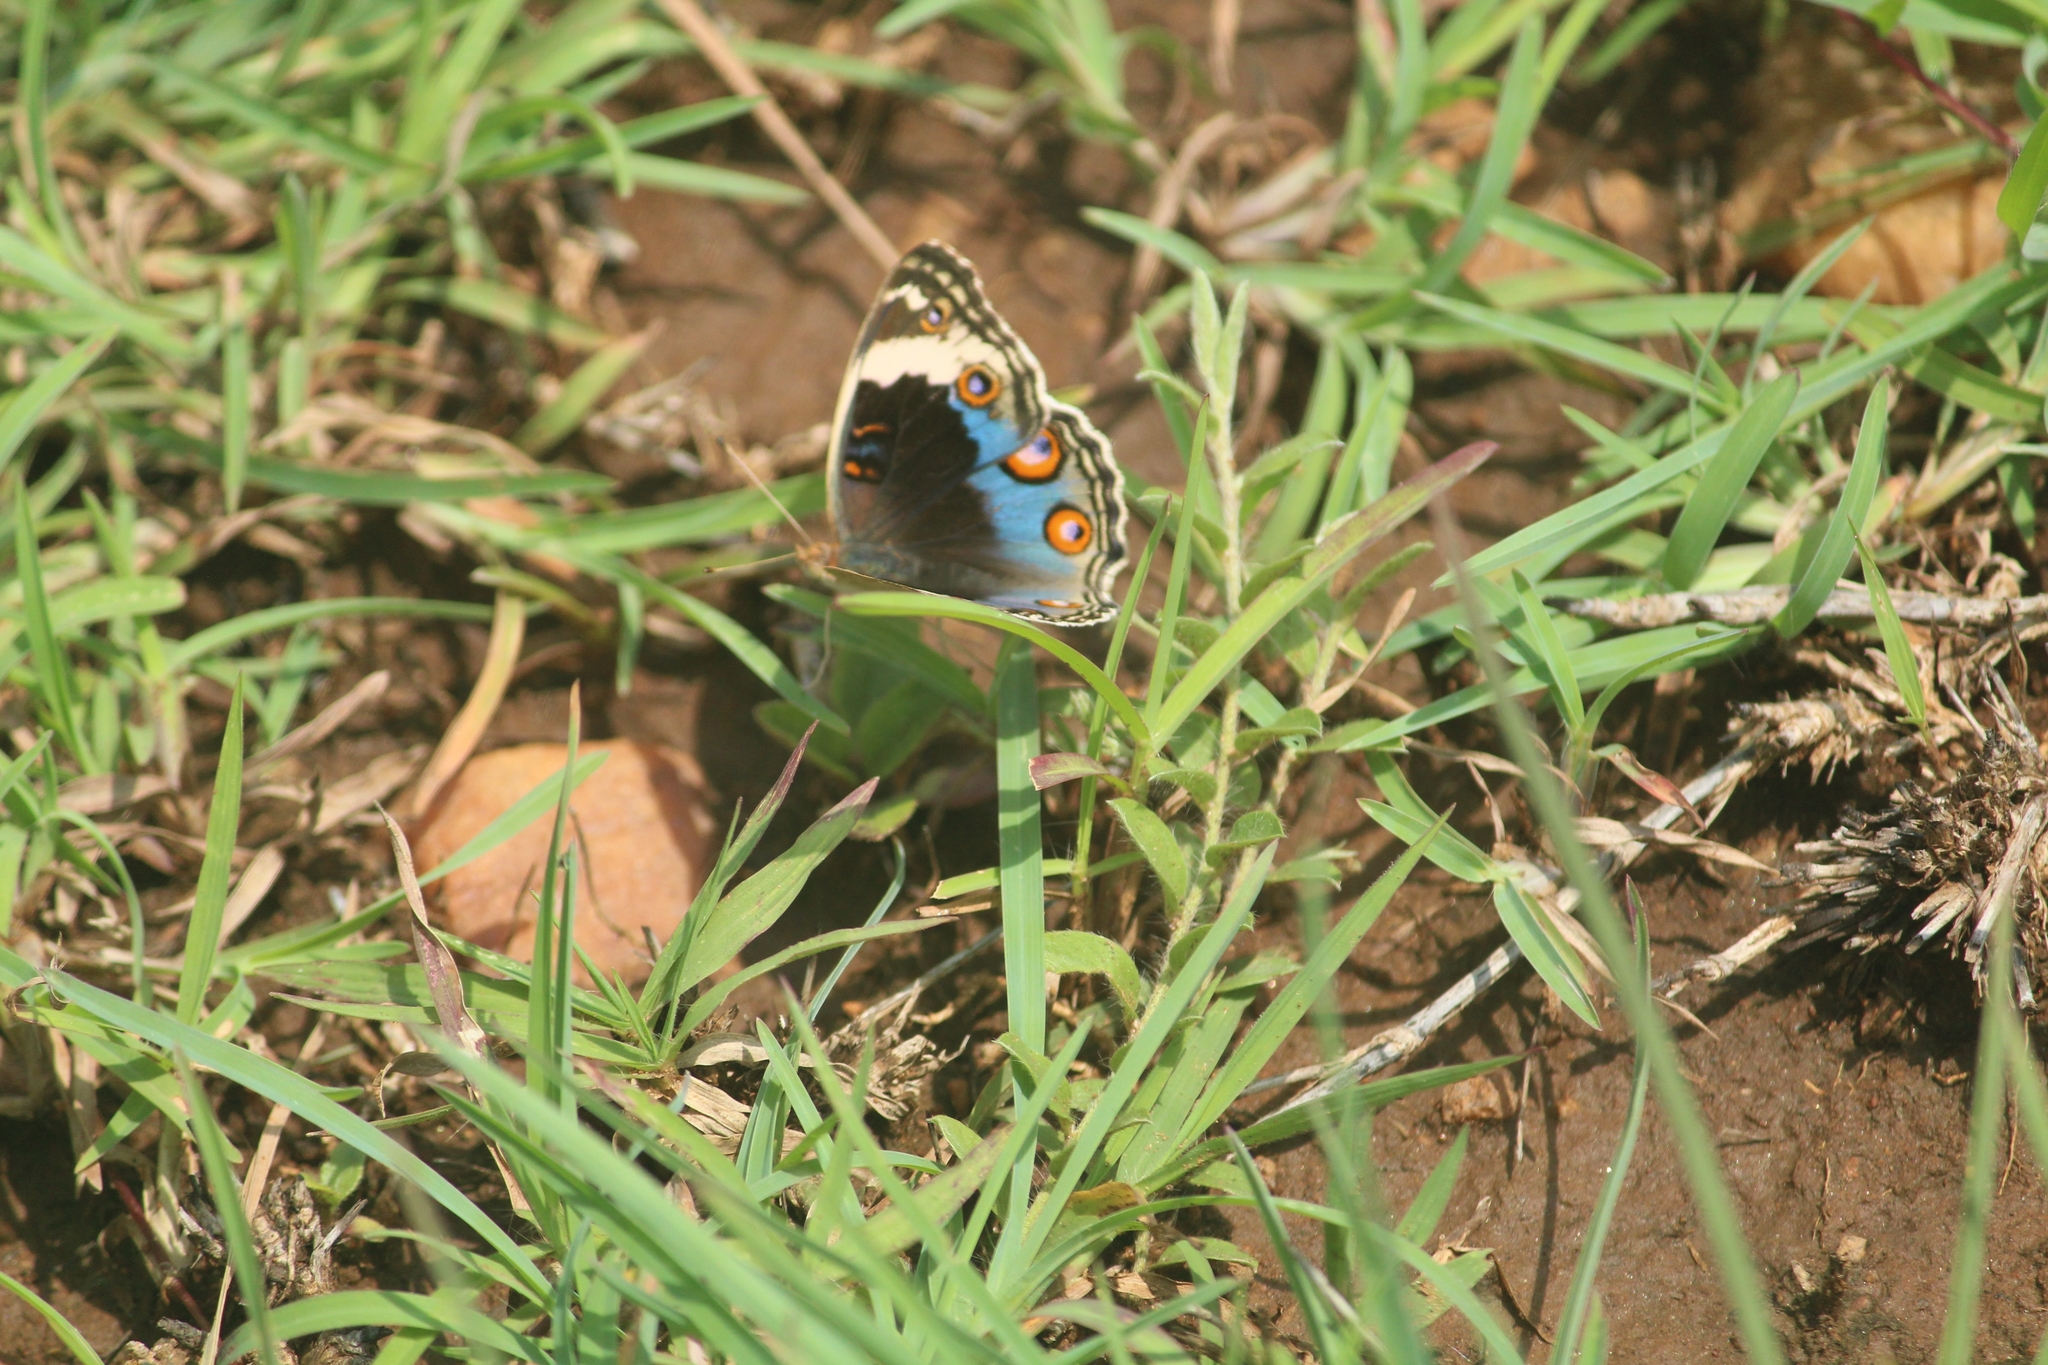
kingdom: Animalia
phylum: Arthropoda
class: Insecta
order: Lepidoptera
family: Nymphalidae
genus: Junonia
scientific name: Junonia orithya
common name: Blue pansy
